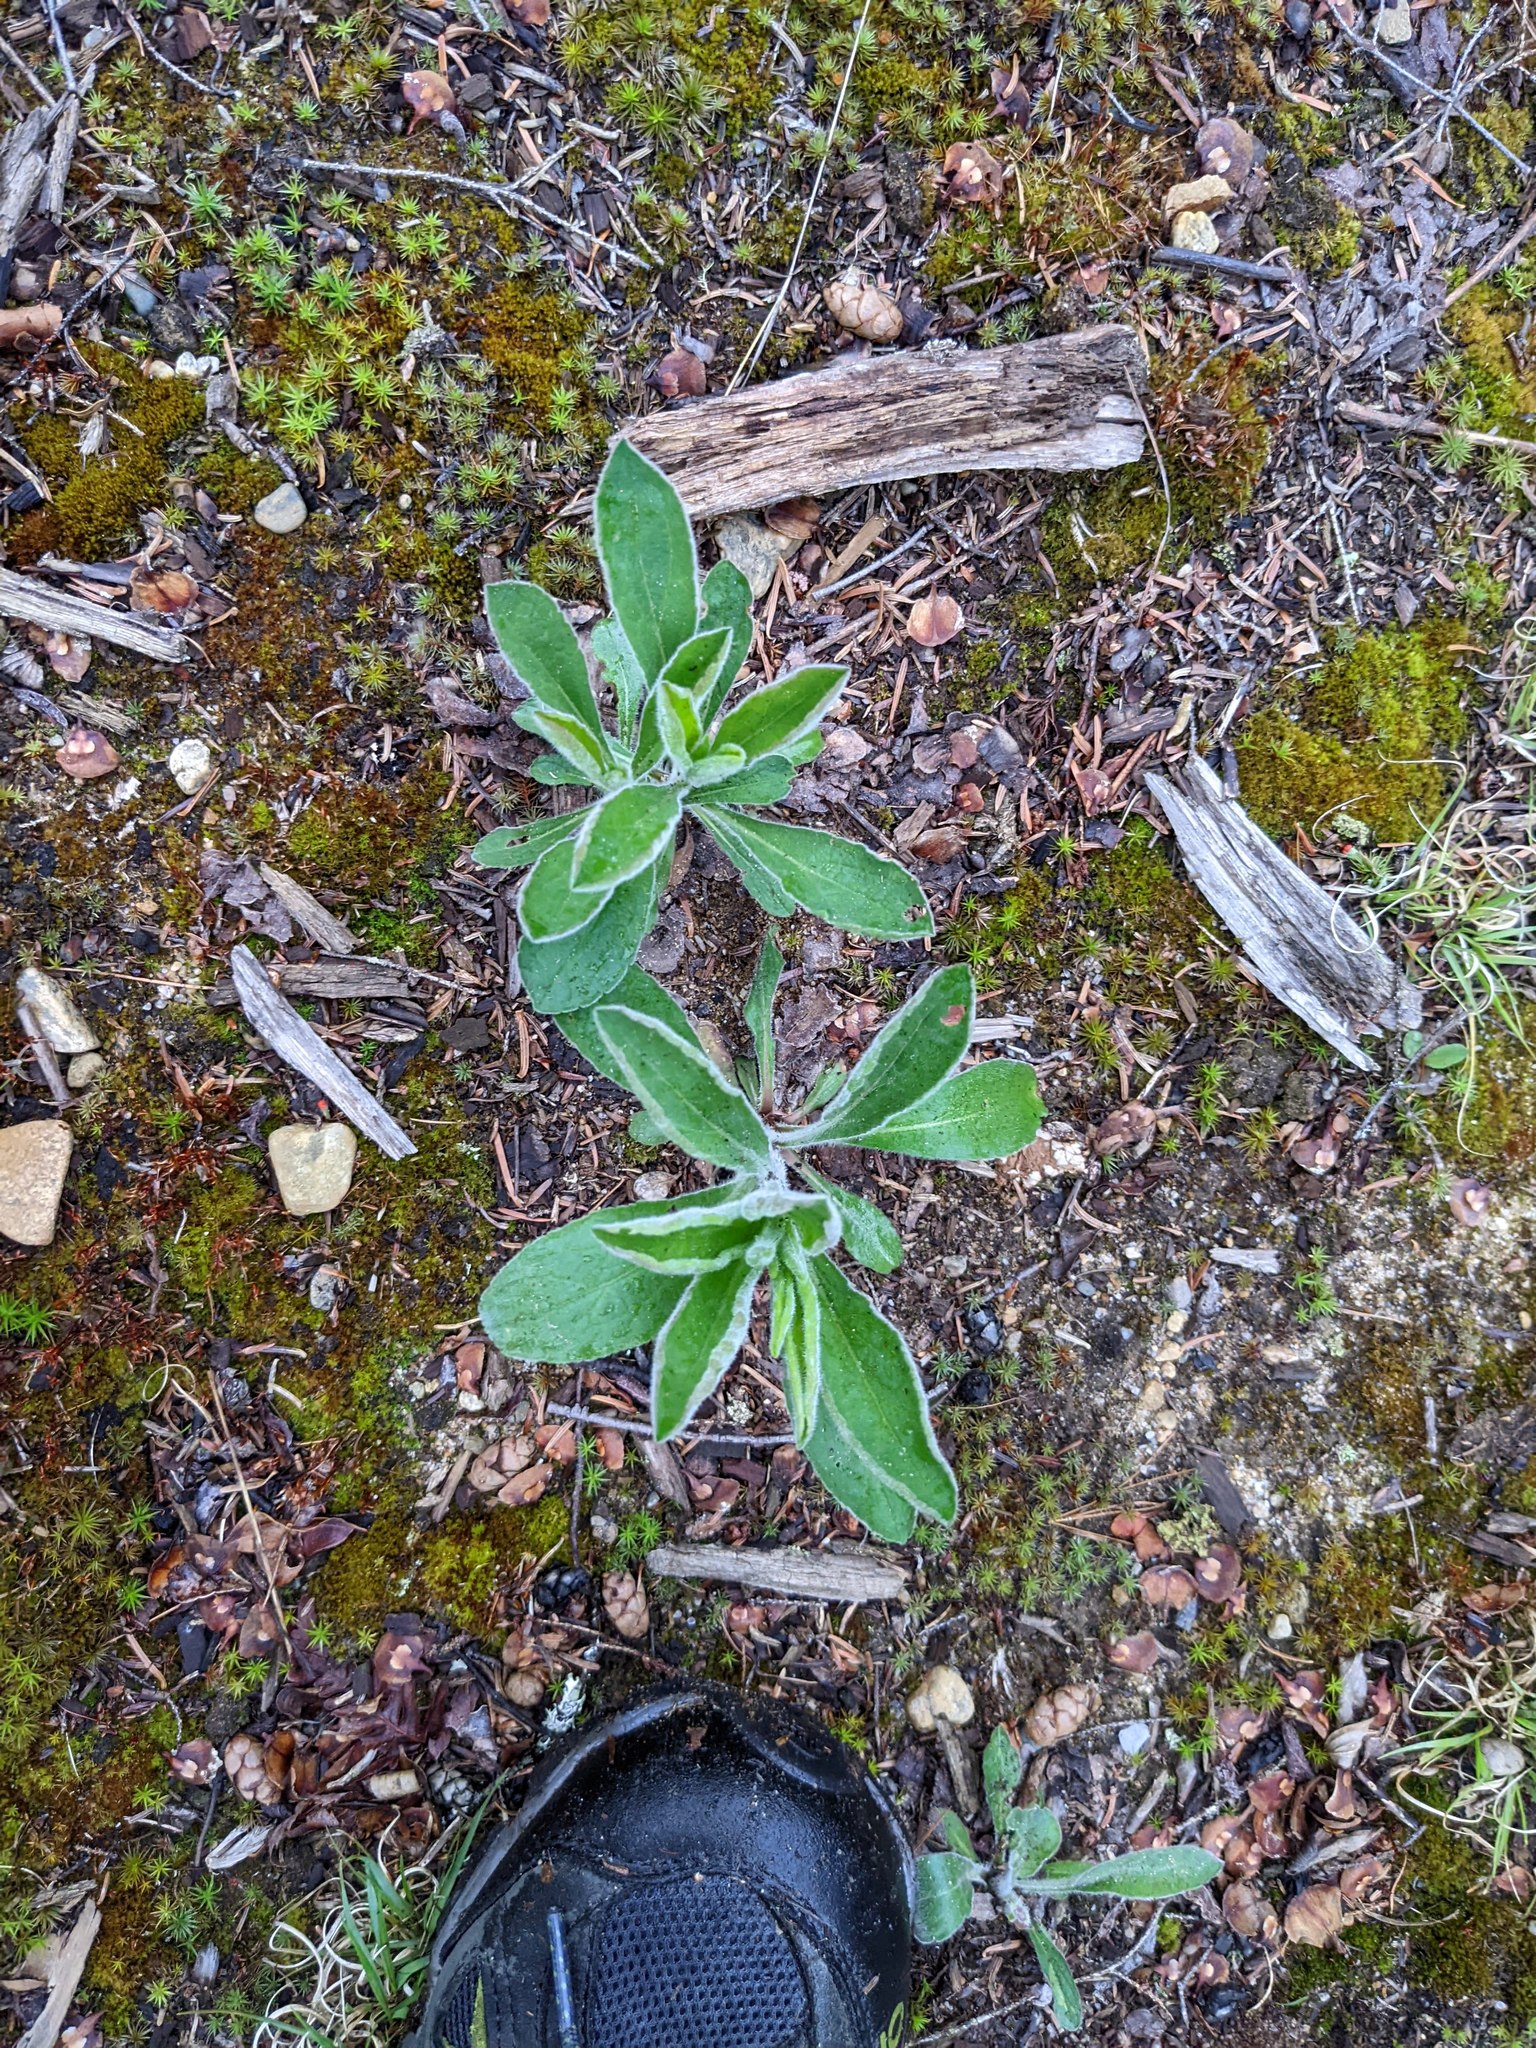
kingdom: Plantae
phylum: Tracheophyta
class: Magnoliopsida
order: Asterales
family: Asteraceae
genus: Pilosella
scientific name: Pilosella officinarum
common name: Mouse-ear hawkweed
